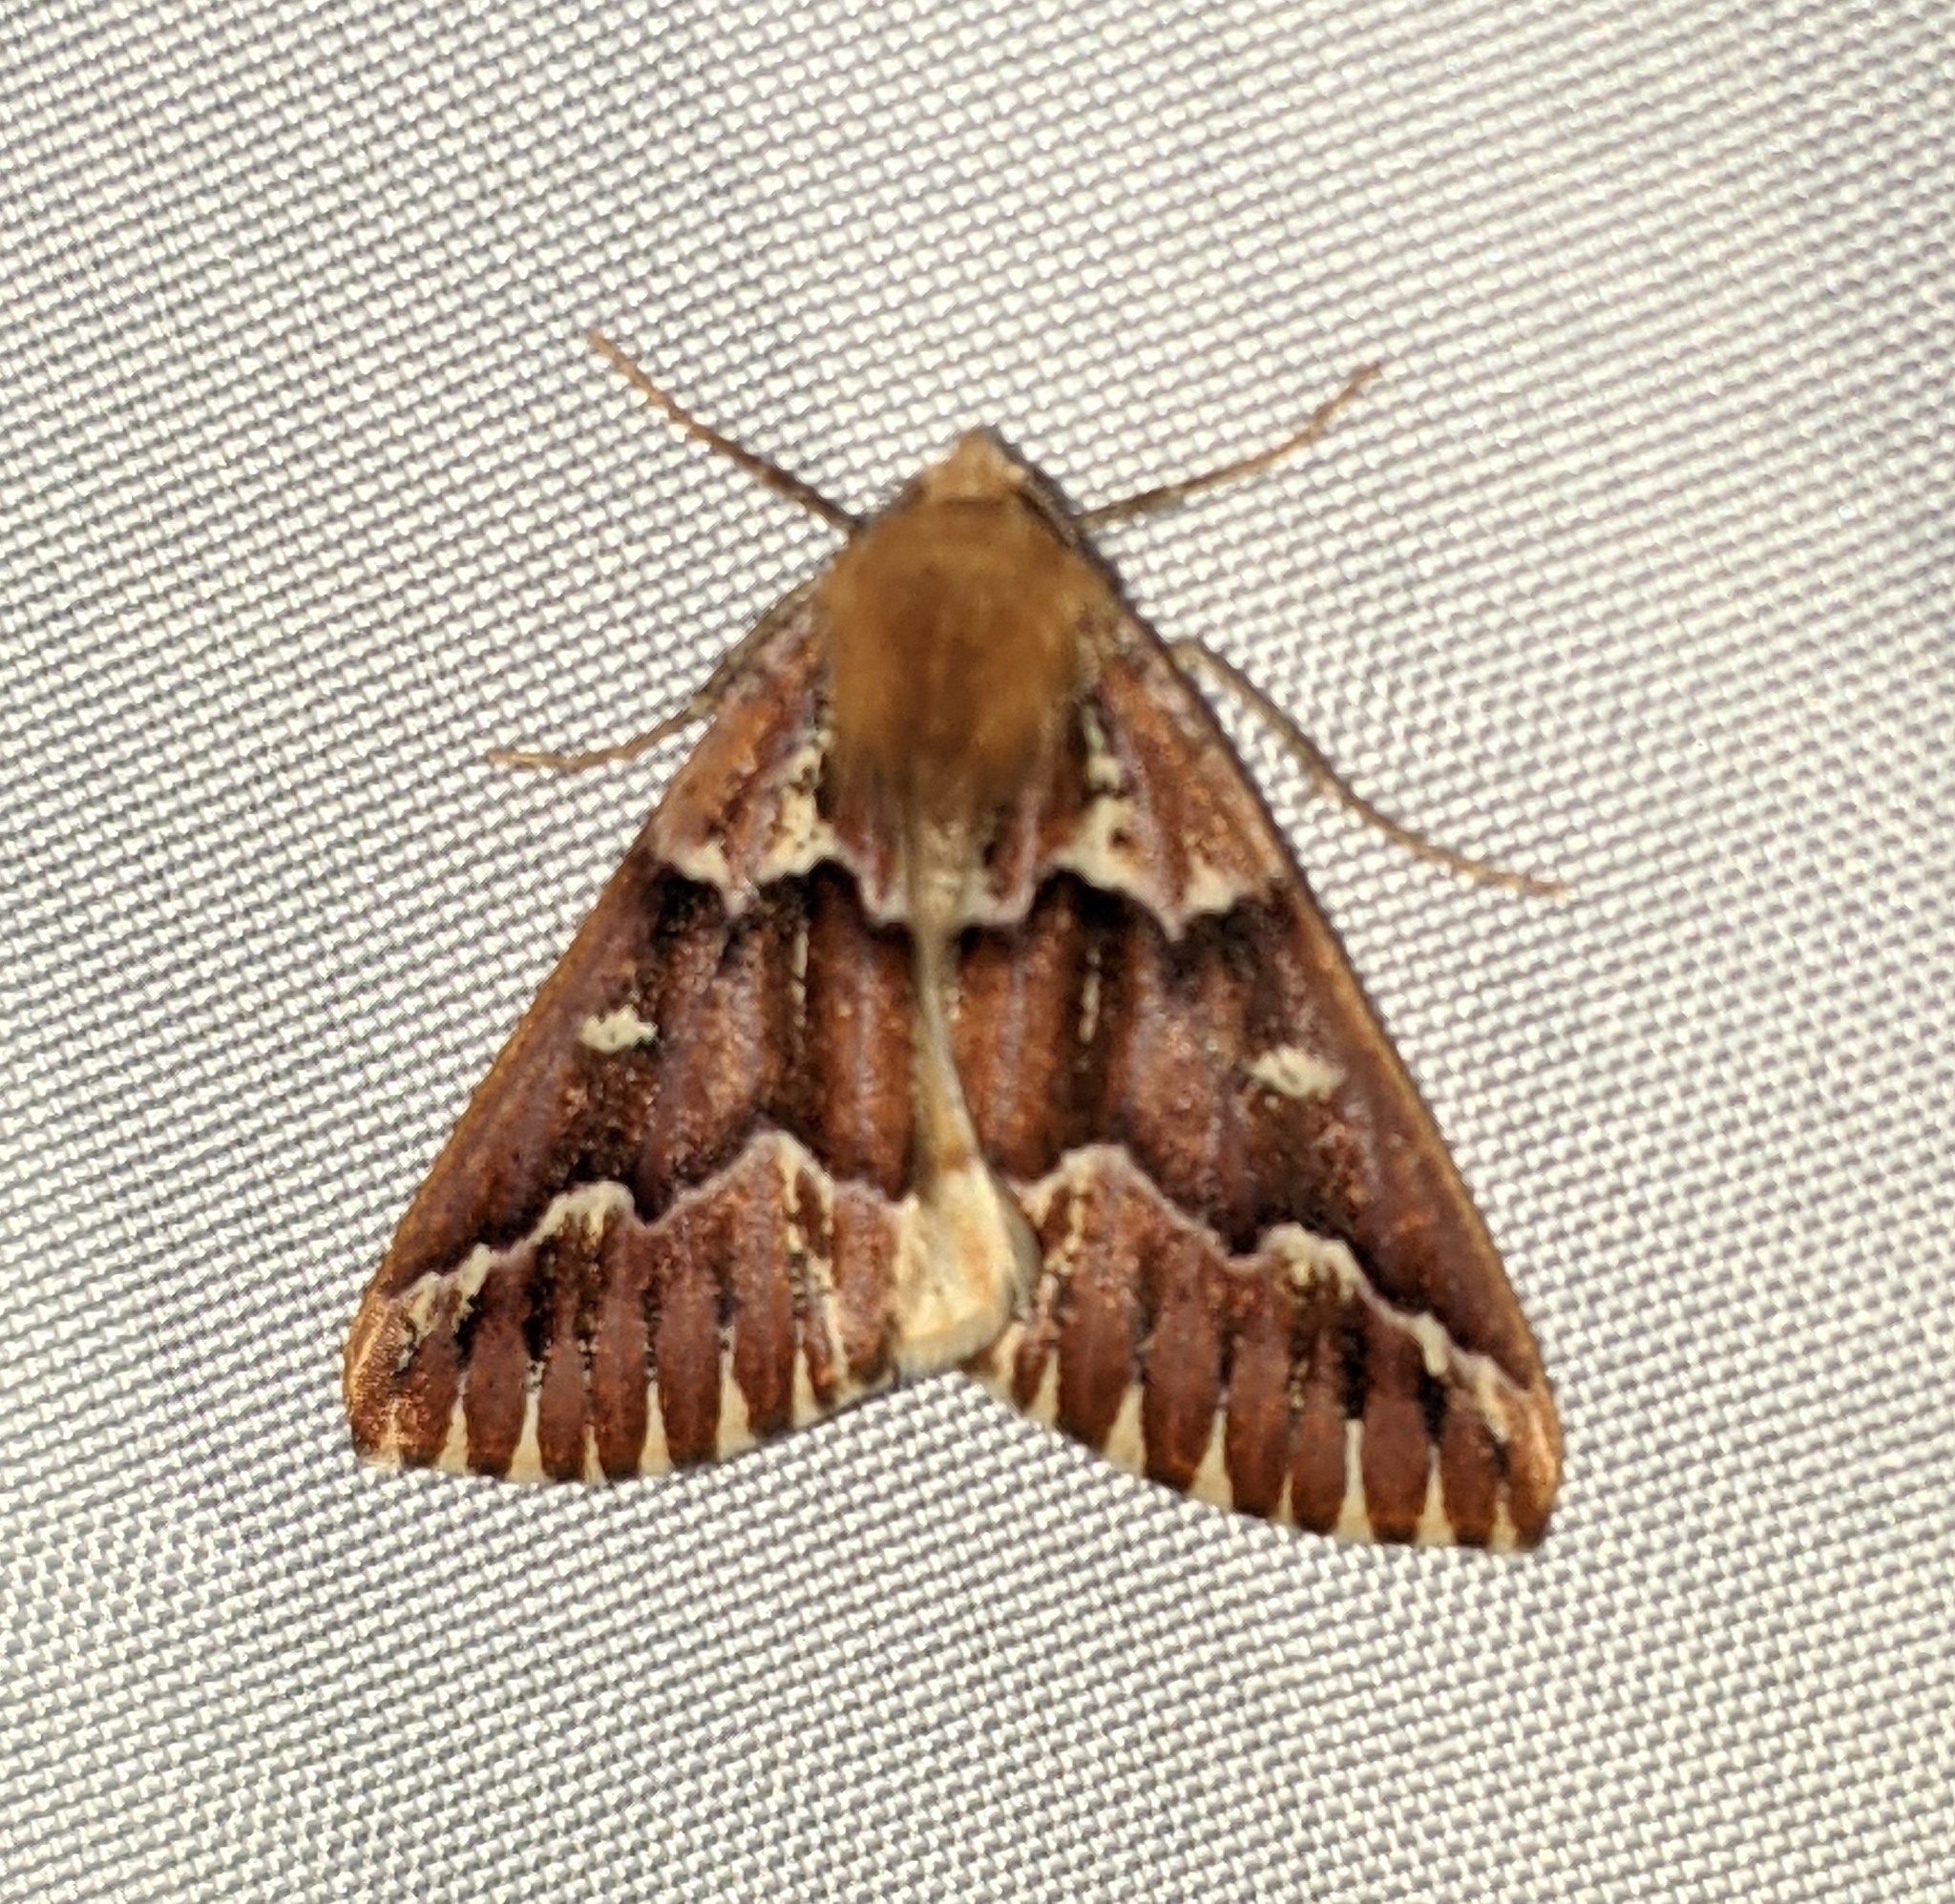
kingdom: Animalia
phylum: Arthropoda
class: Insecta
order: Lepidoptera
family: Geometridae
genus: Caripeta
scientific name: Caripeta aequaliaria
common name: Red girdle moth
